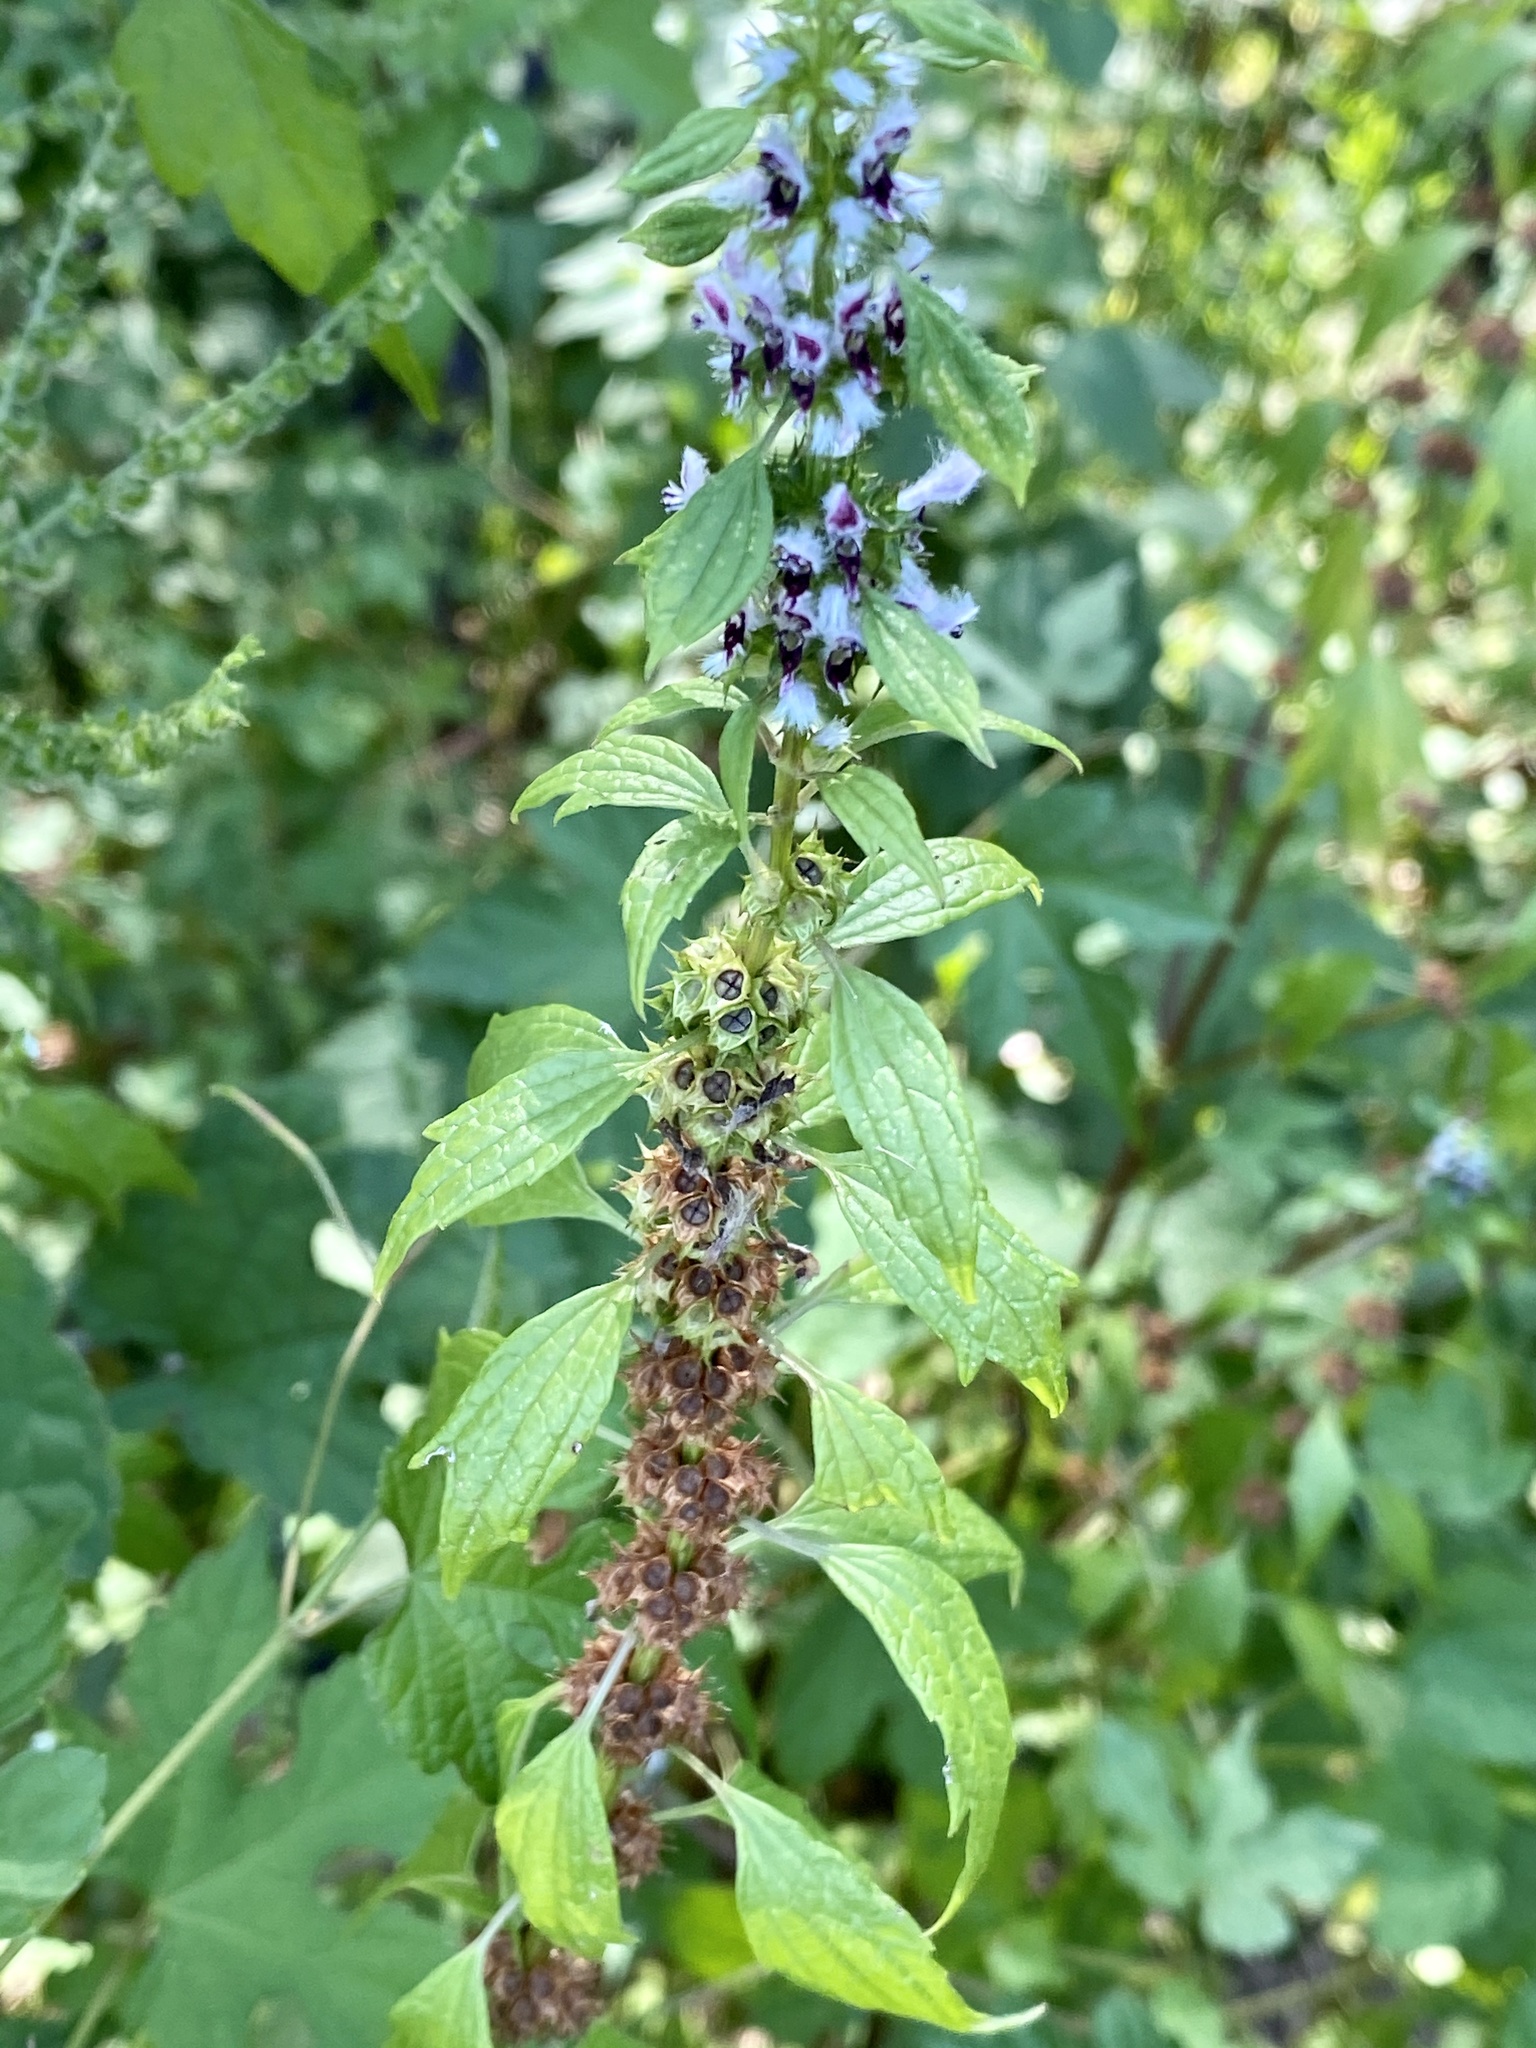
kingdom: Plantae
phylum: Tracheophyta
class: Magnoliopsida
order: Lamiales
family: Lamiaceae
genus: Leonurus
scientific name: Leonurus cardiaca
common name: Motherwort
